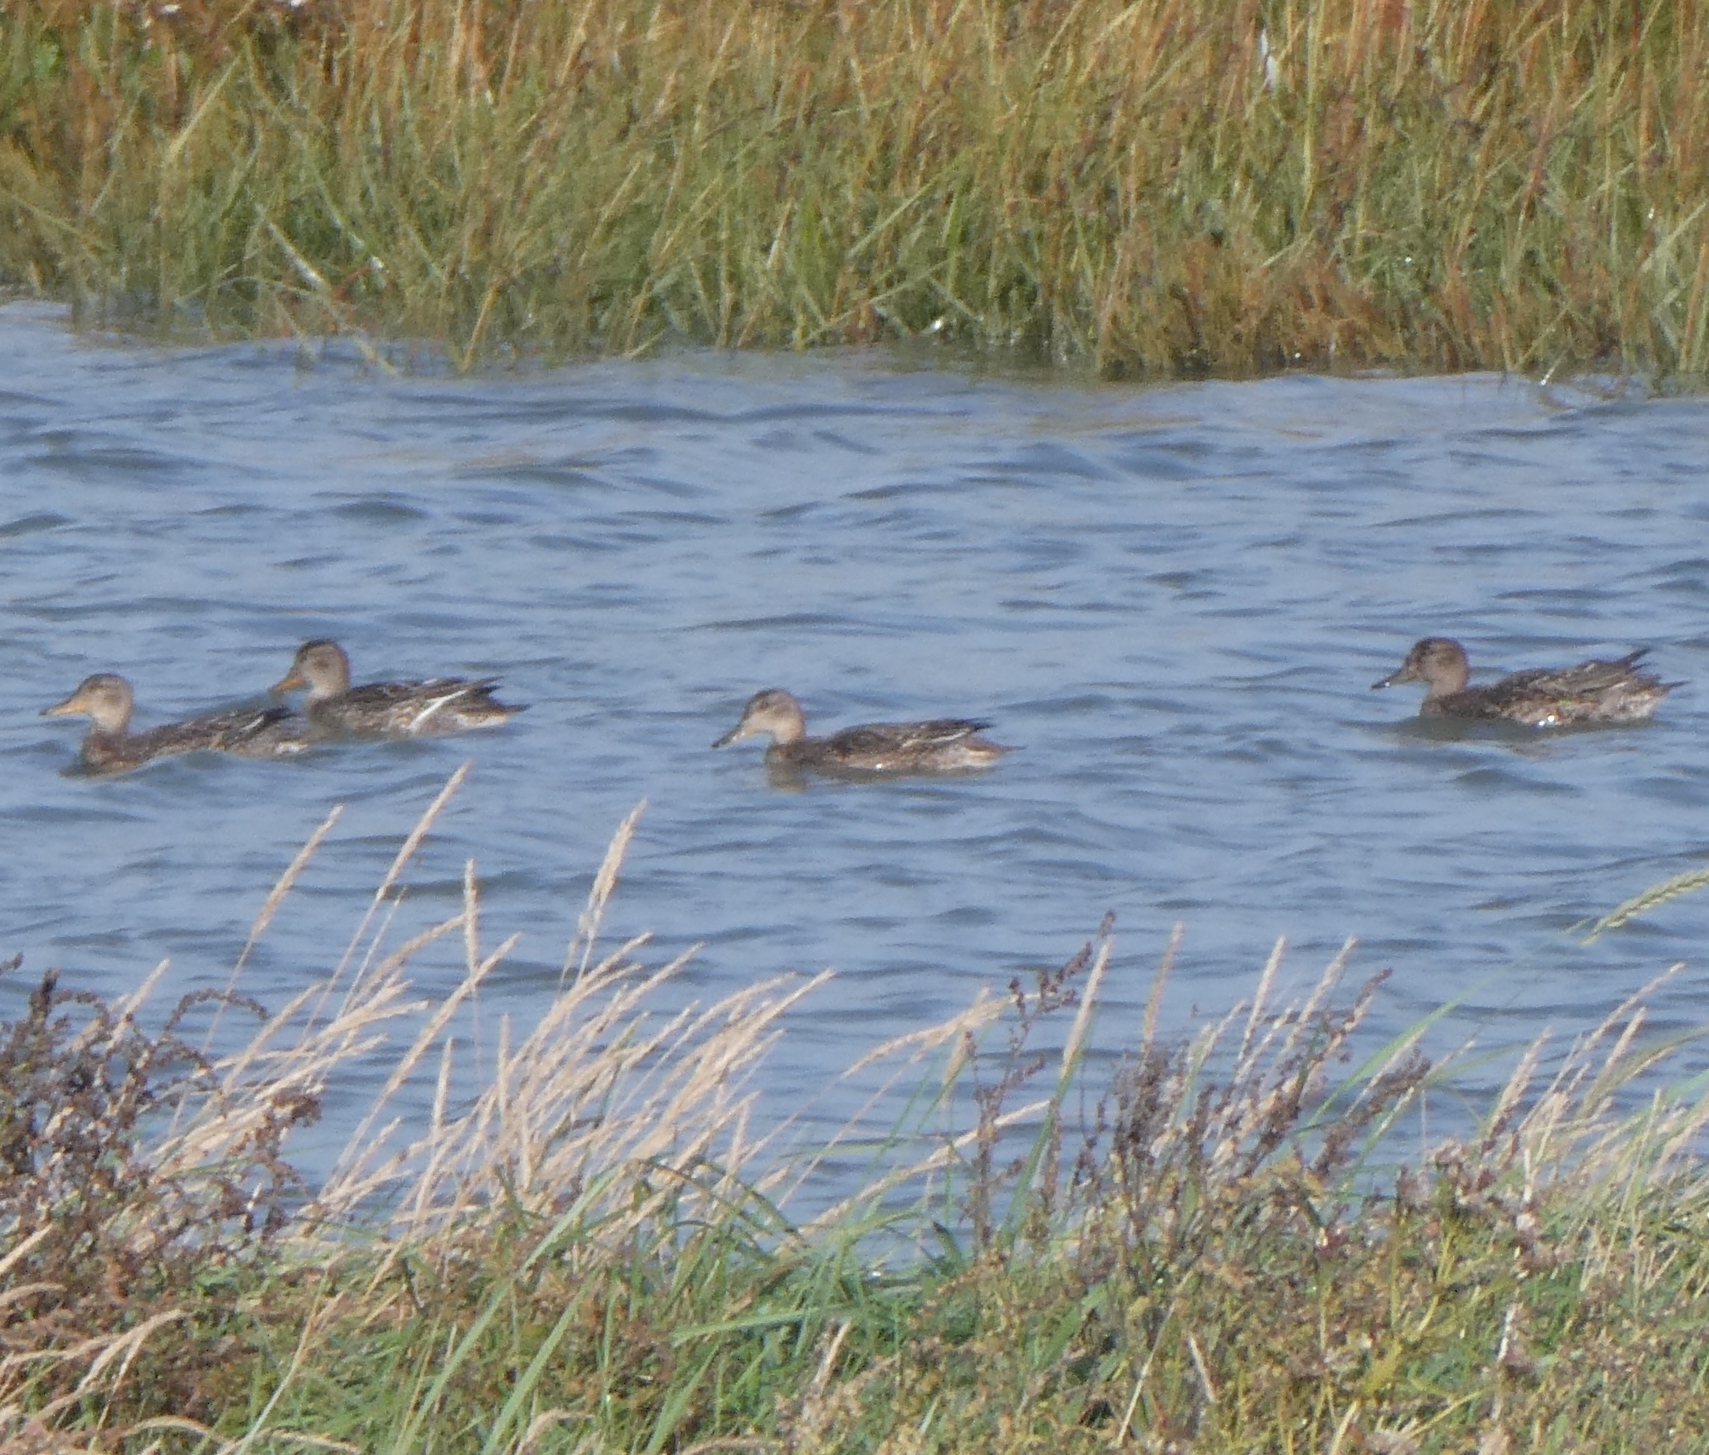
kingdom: Animalia
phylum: Chordata
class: Aves
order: Anseriformes
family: Anatidae
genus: Anas
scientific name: Anas crecca
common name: Eurasian teal
